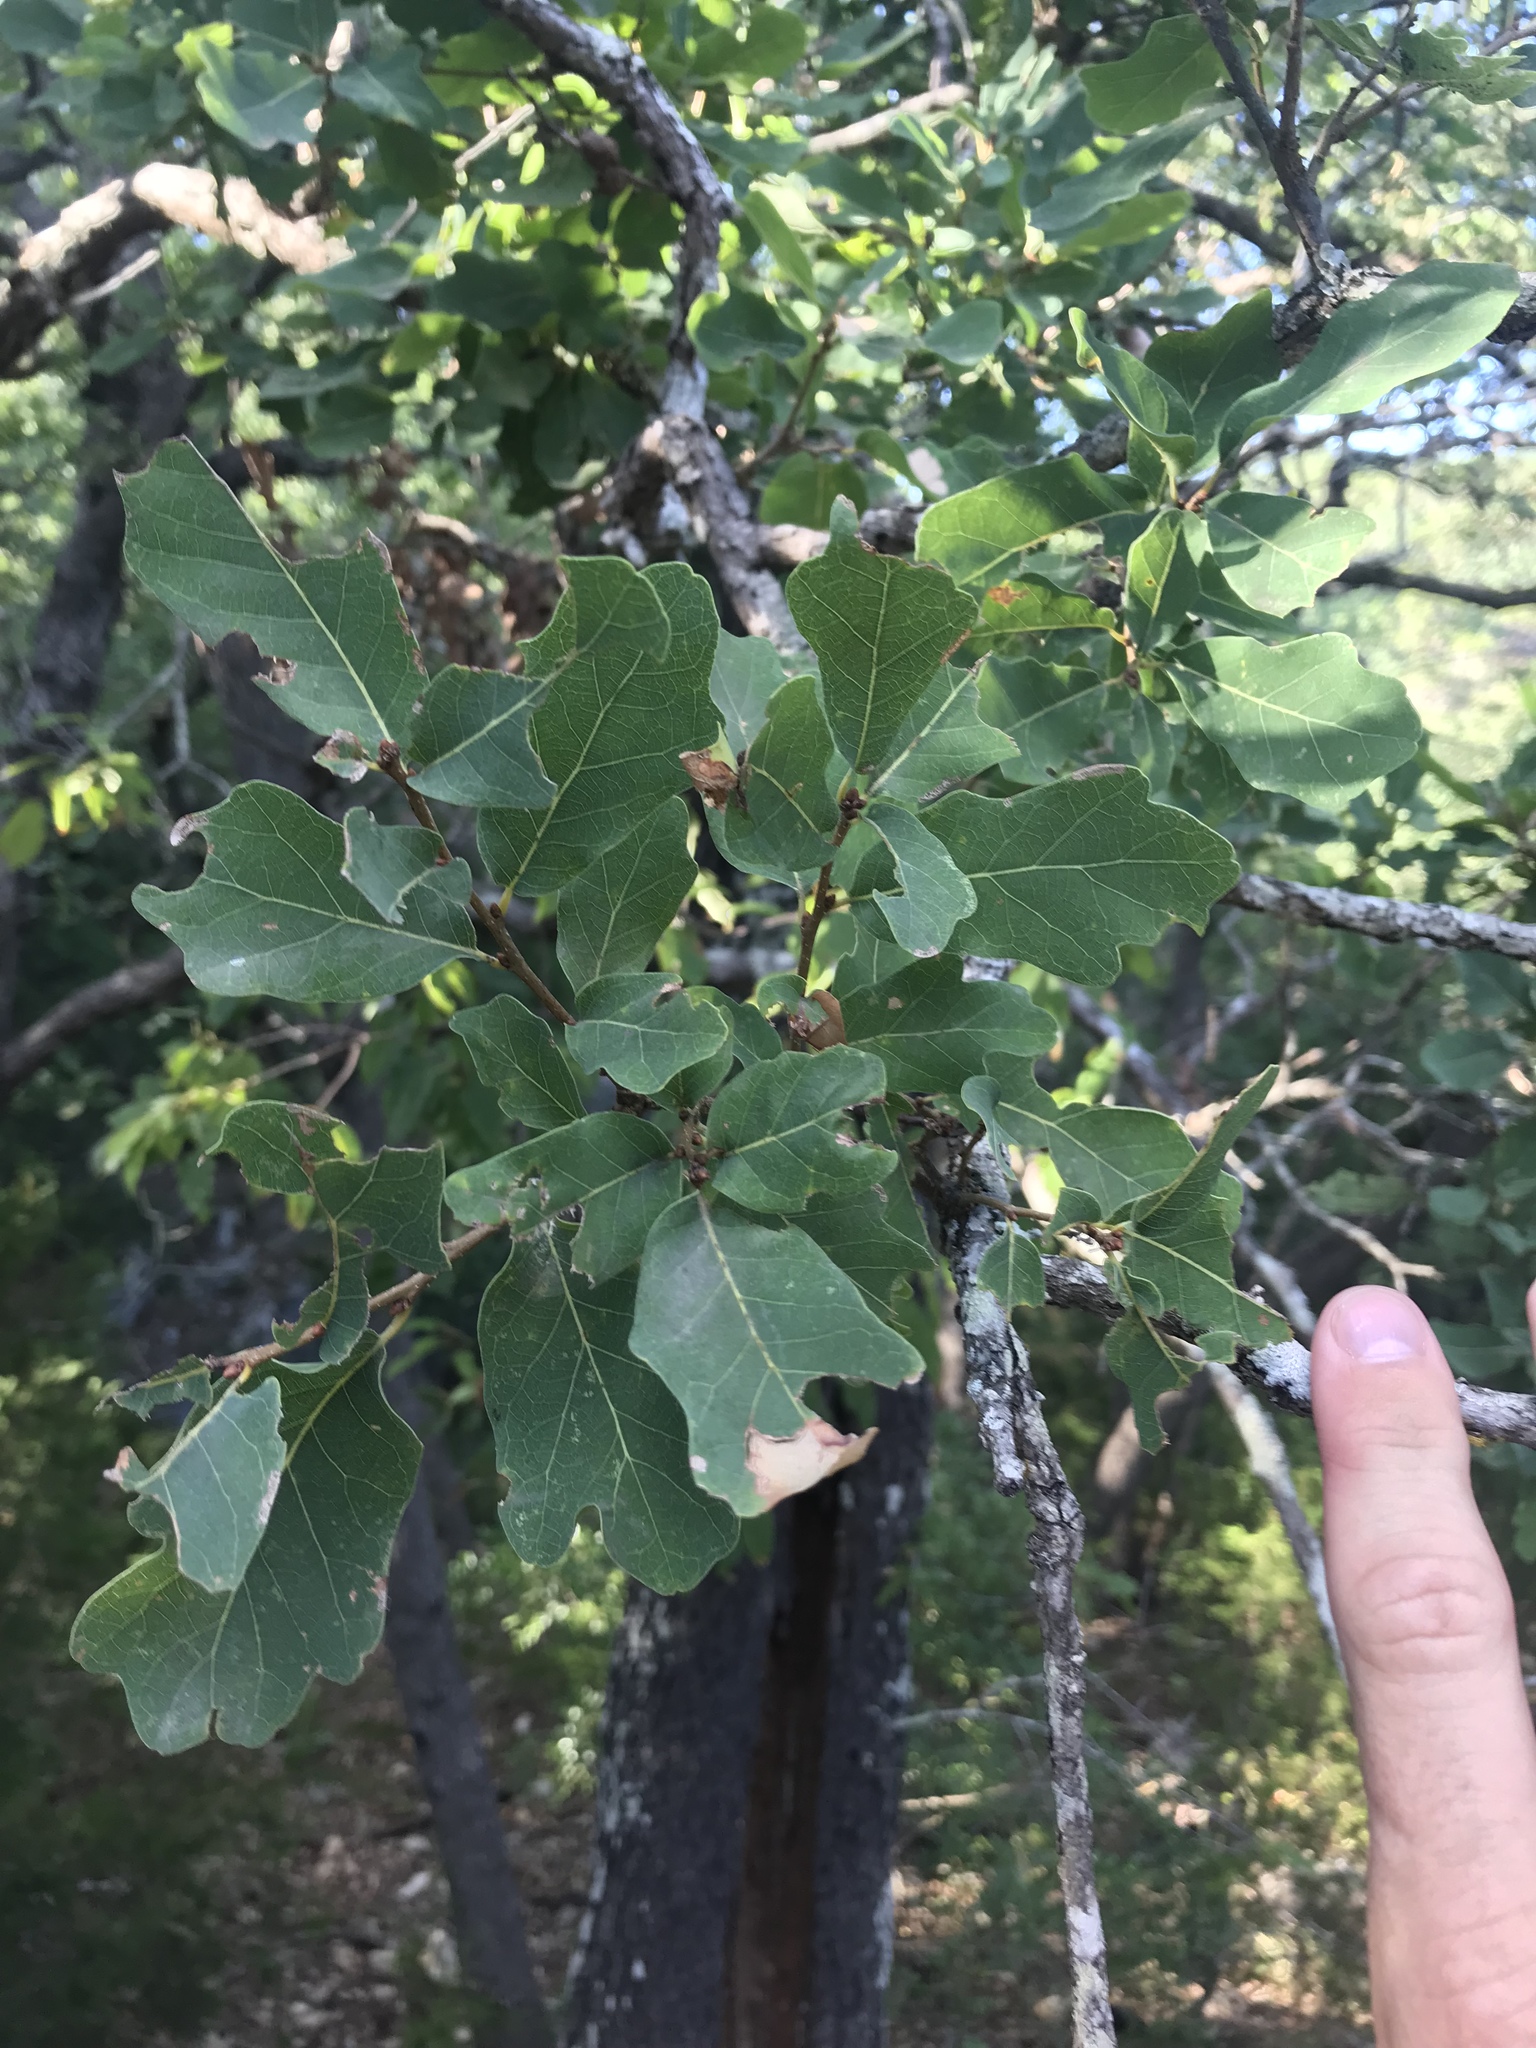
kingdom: Plantae
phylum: Tracheophyta
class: Magnoliopsida
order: Fagales
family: Fagaceae
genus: Quercus
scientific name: Quercus laceyi
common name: Lacey oak
